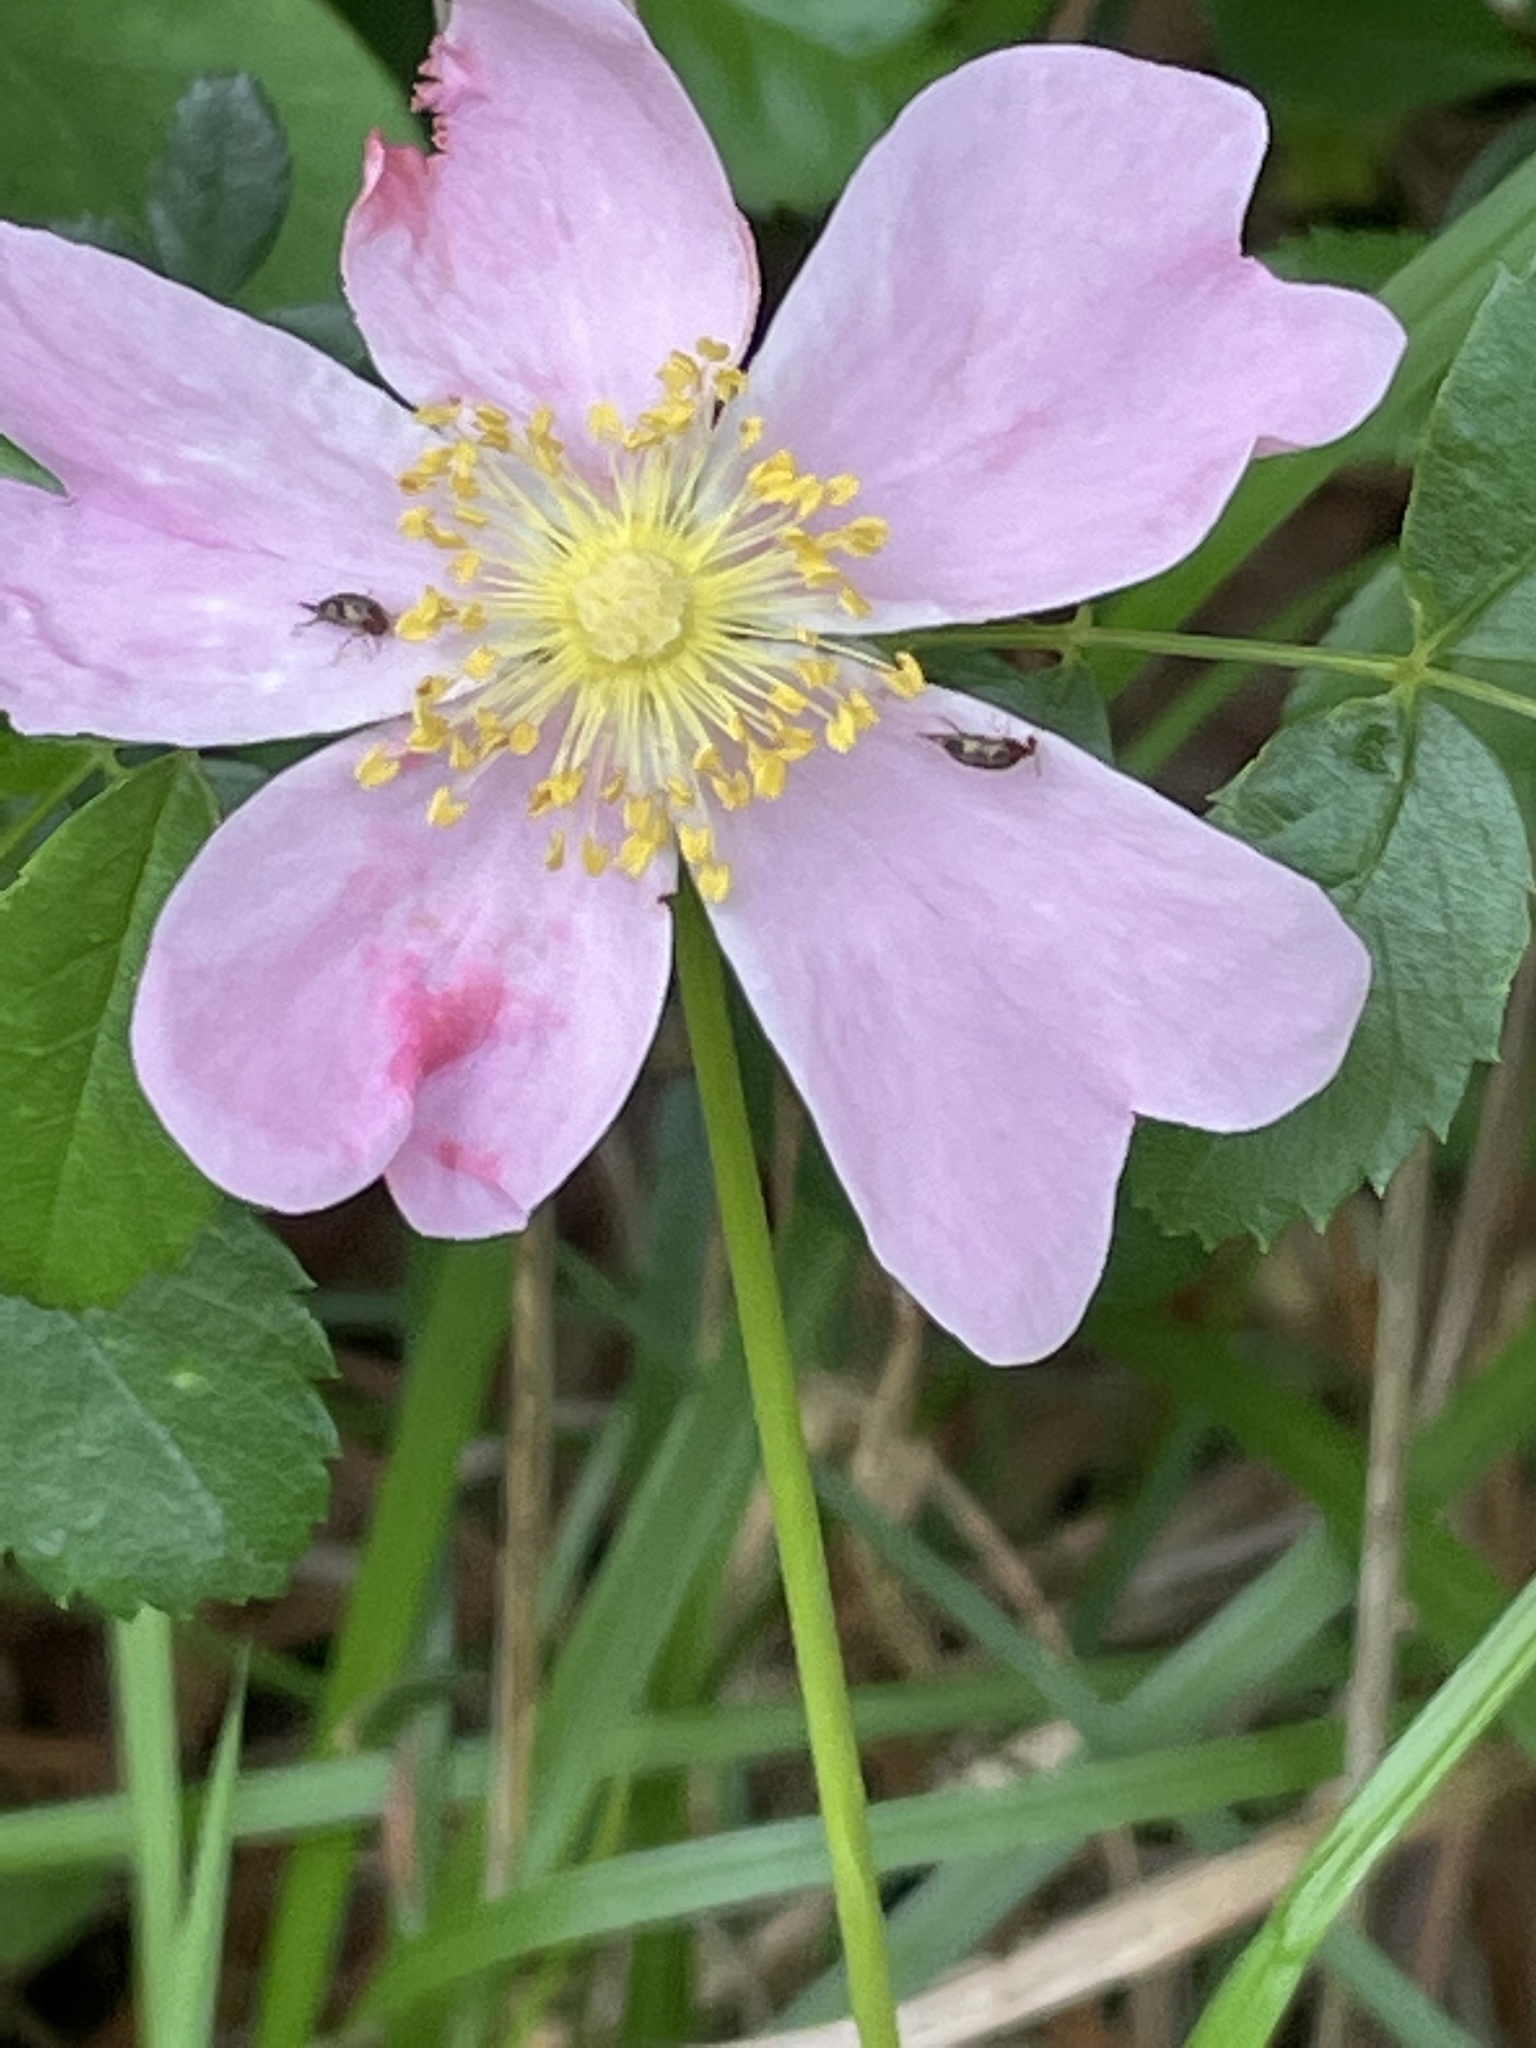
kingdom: Plantae
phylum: Tracheophyta
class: Magnoliopsida
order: Rosales
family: Rosaceae
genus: Rosa
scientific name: Rosa carolina
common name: Pasture rose
